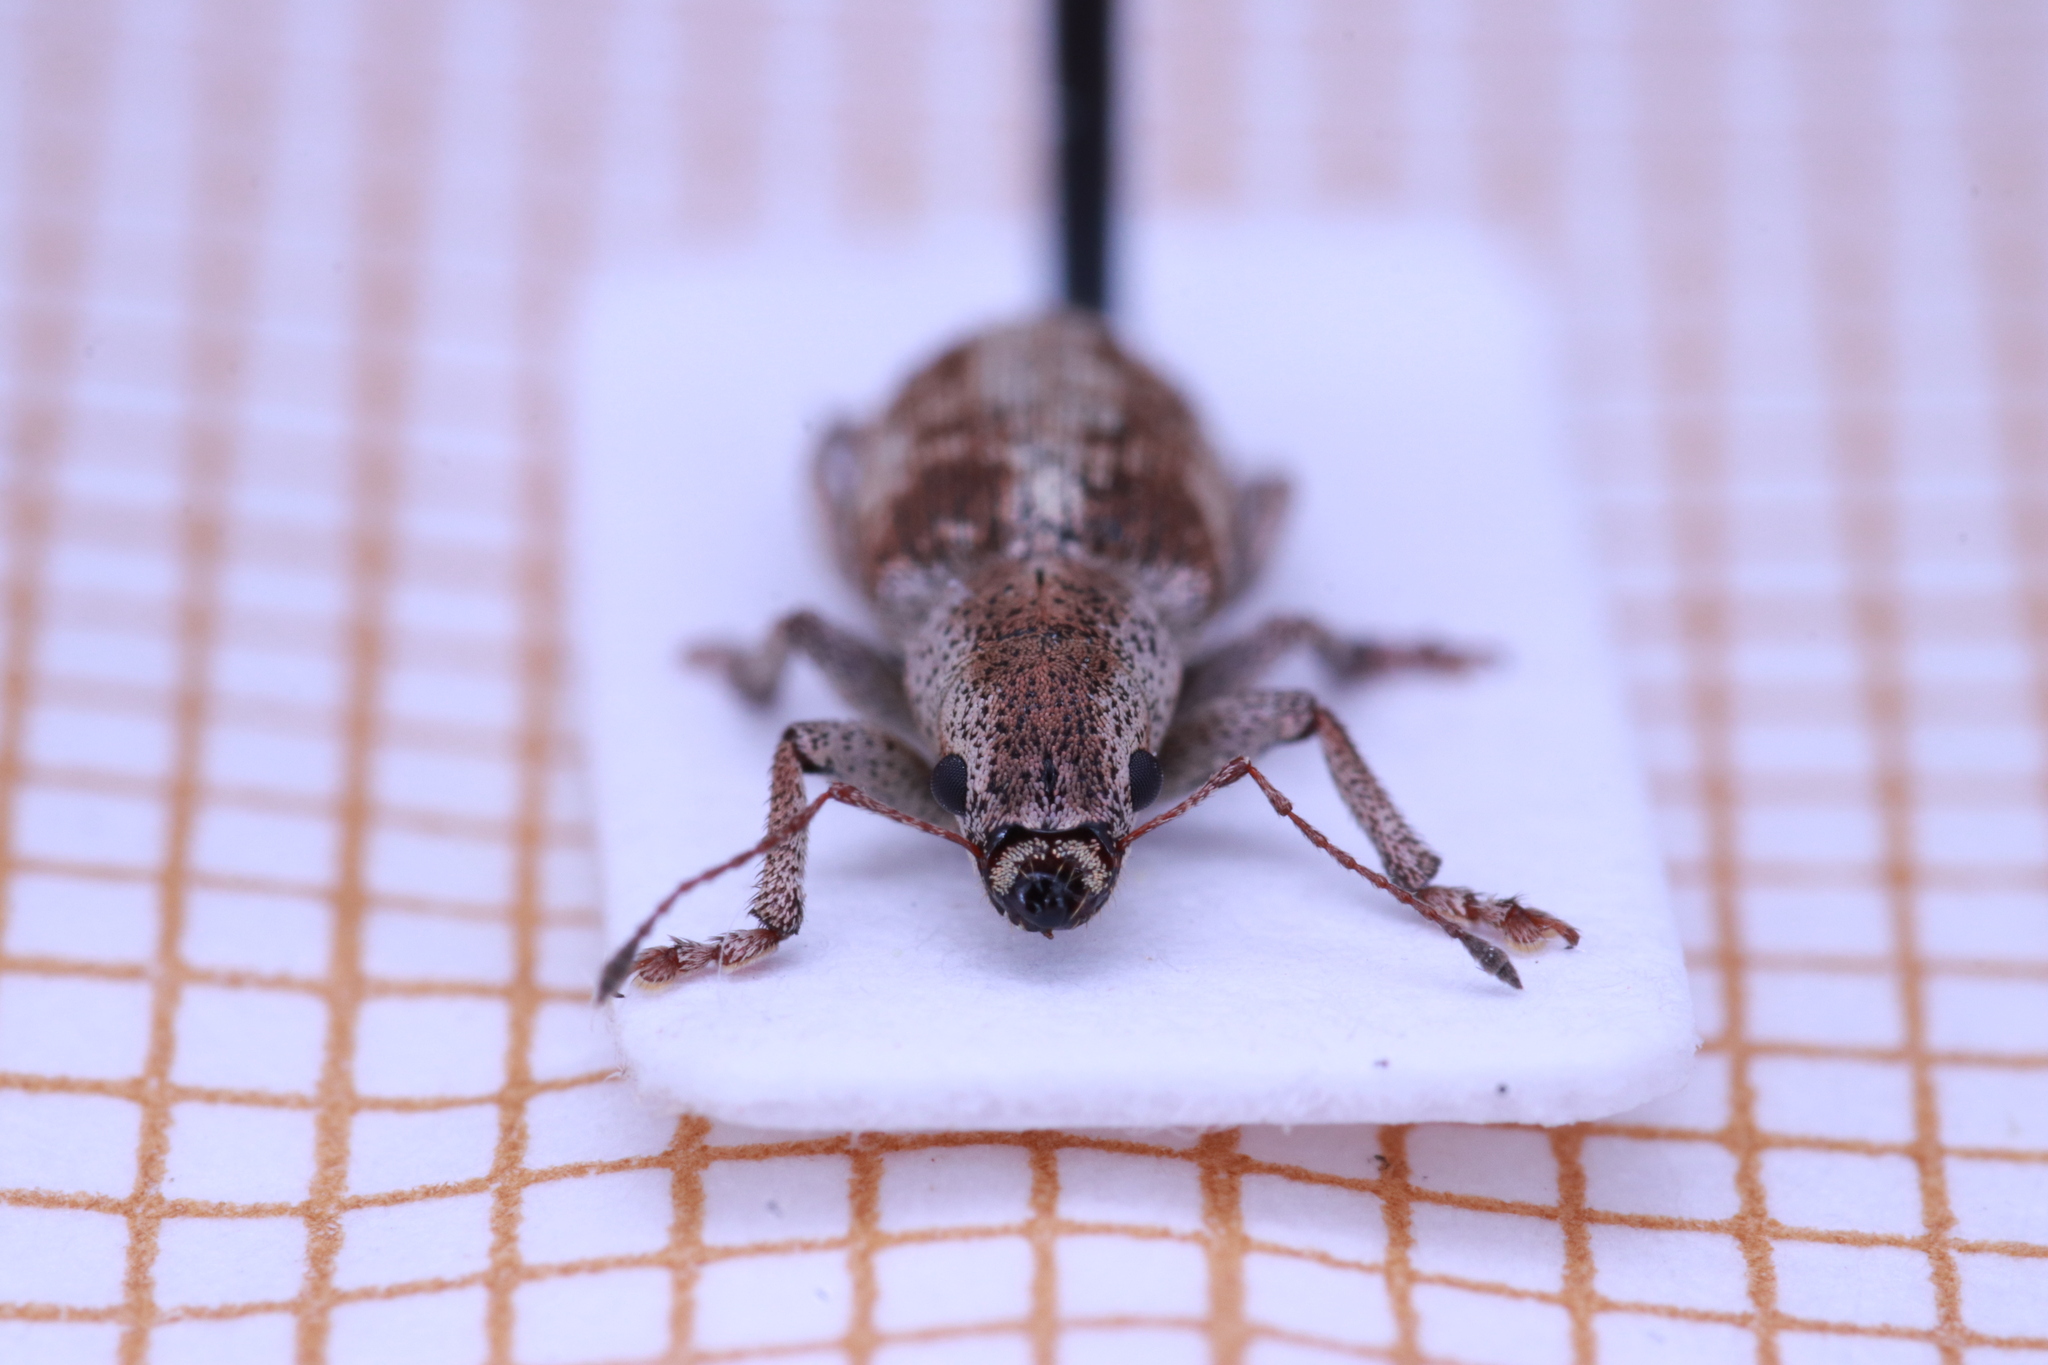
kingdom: Animalia
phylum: Arthropoda
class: Insecta
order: Coleoptera
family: Curculionidae
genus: Pachyrhinus
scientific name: Pachyrhinus squamosus
